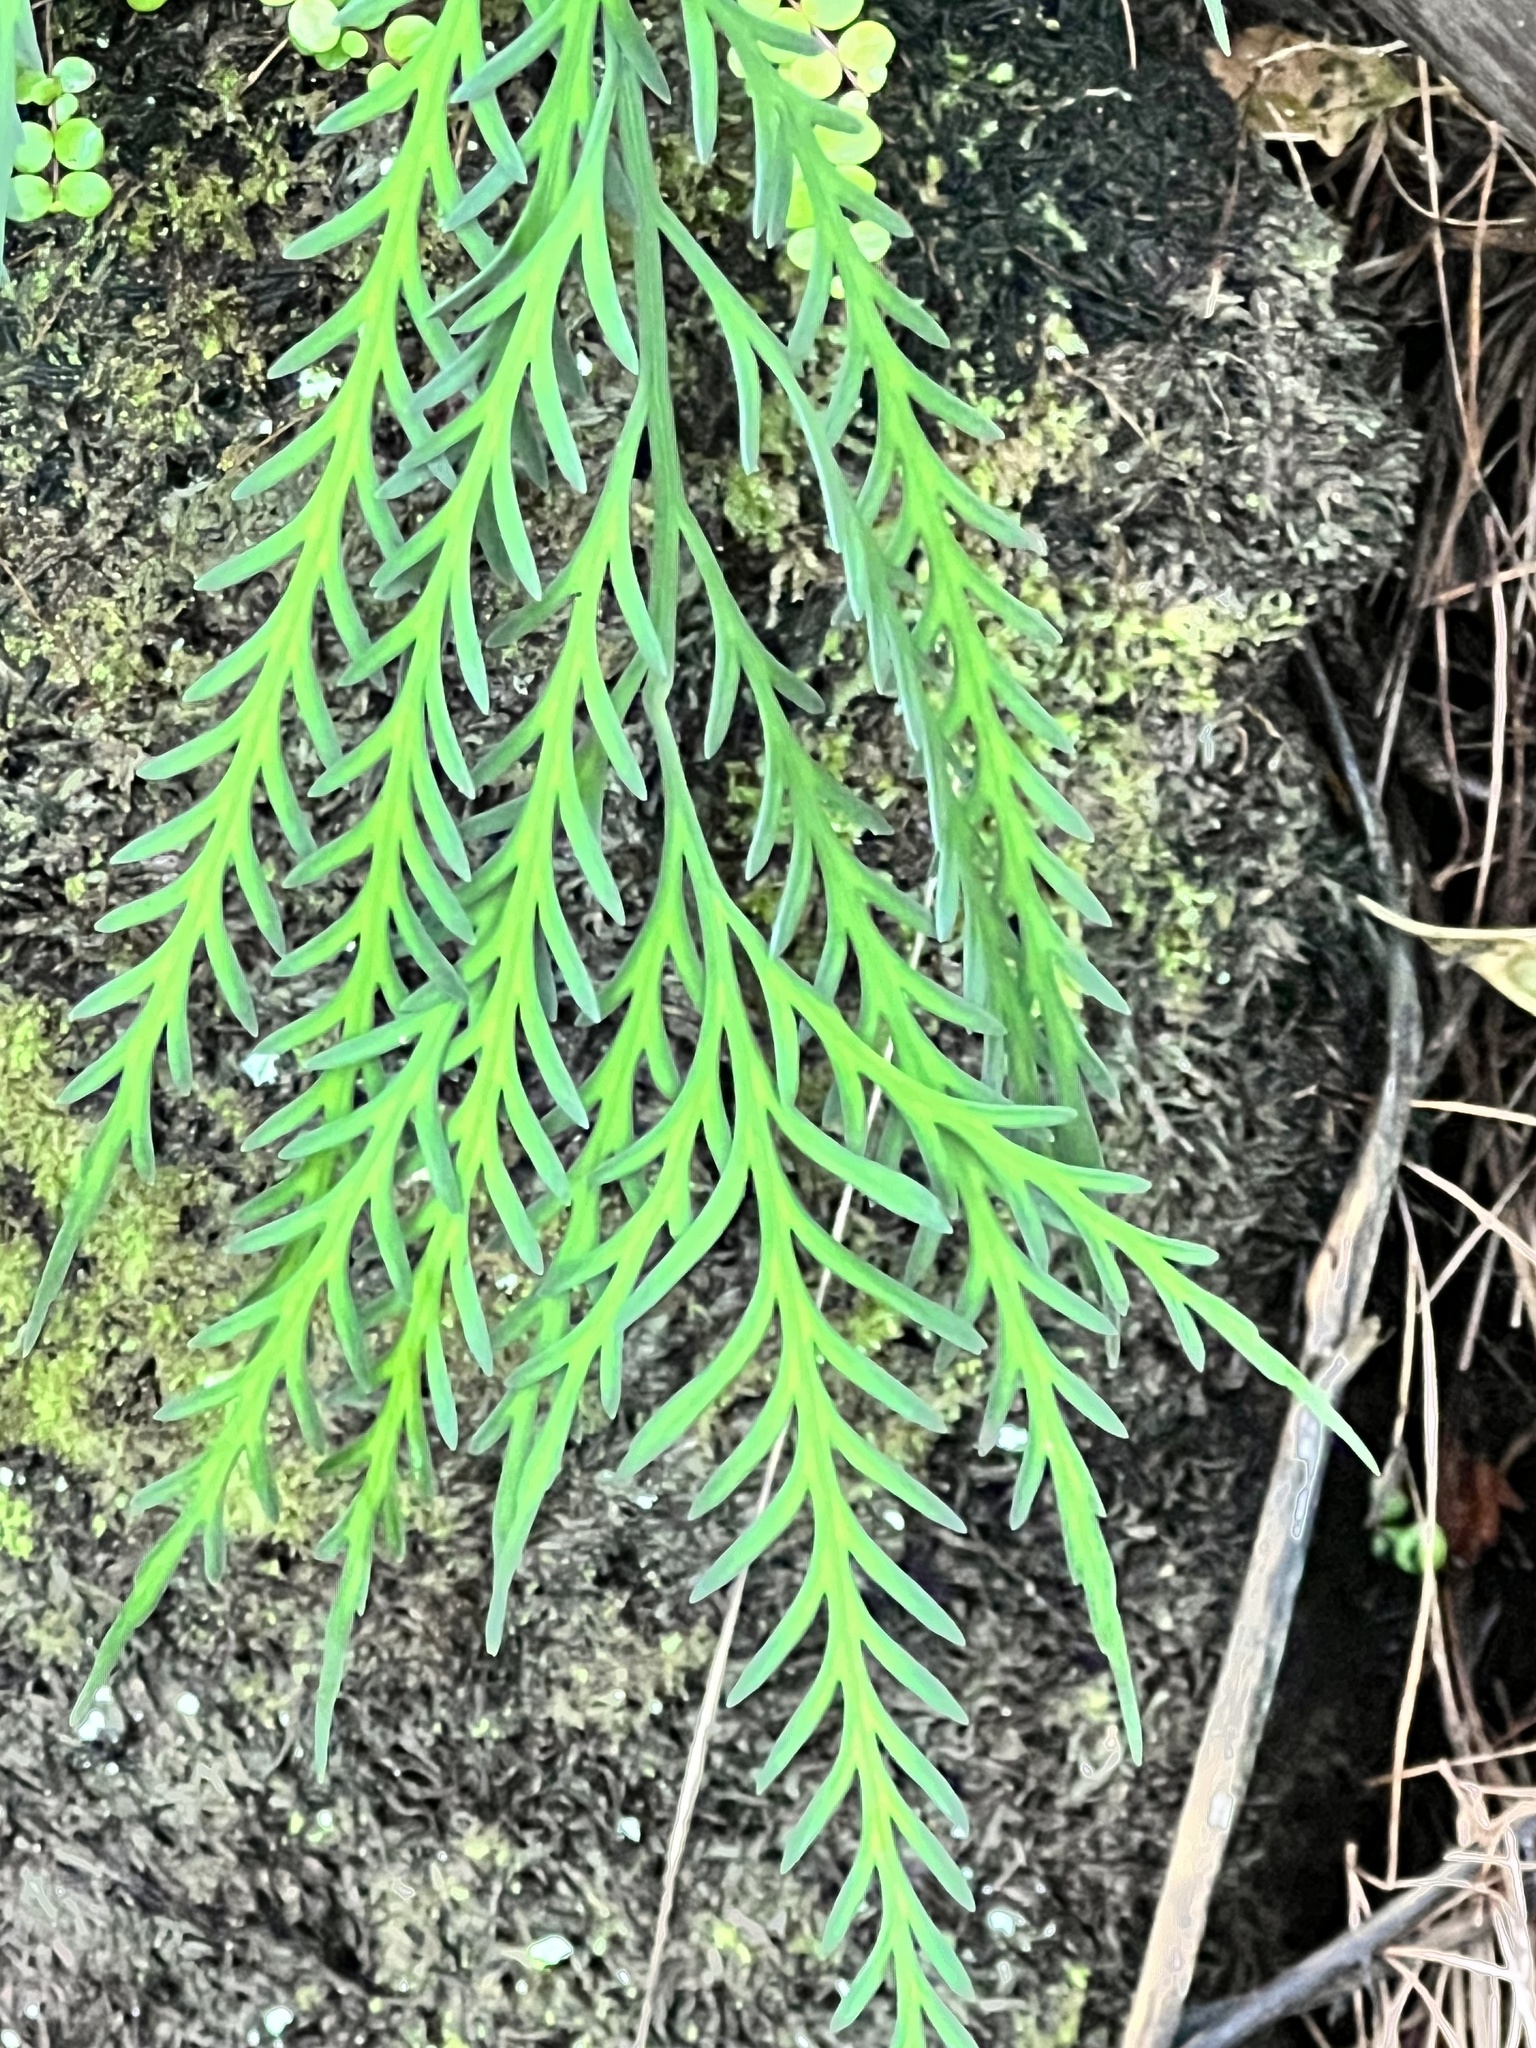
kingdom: Plantae
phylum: Tracheophyta
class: Polypodiopsida
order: Polypodiales
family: Aspleniaceae
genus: Asplenium
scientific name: Asplenium flaccidum
